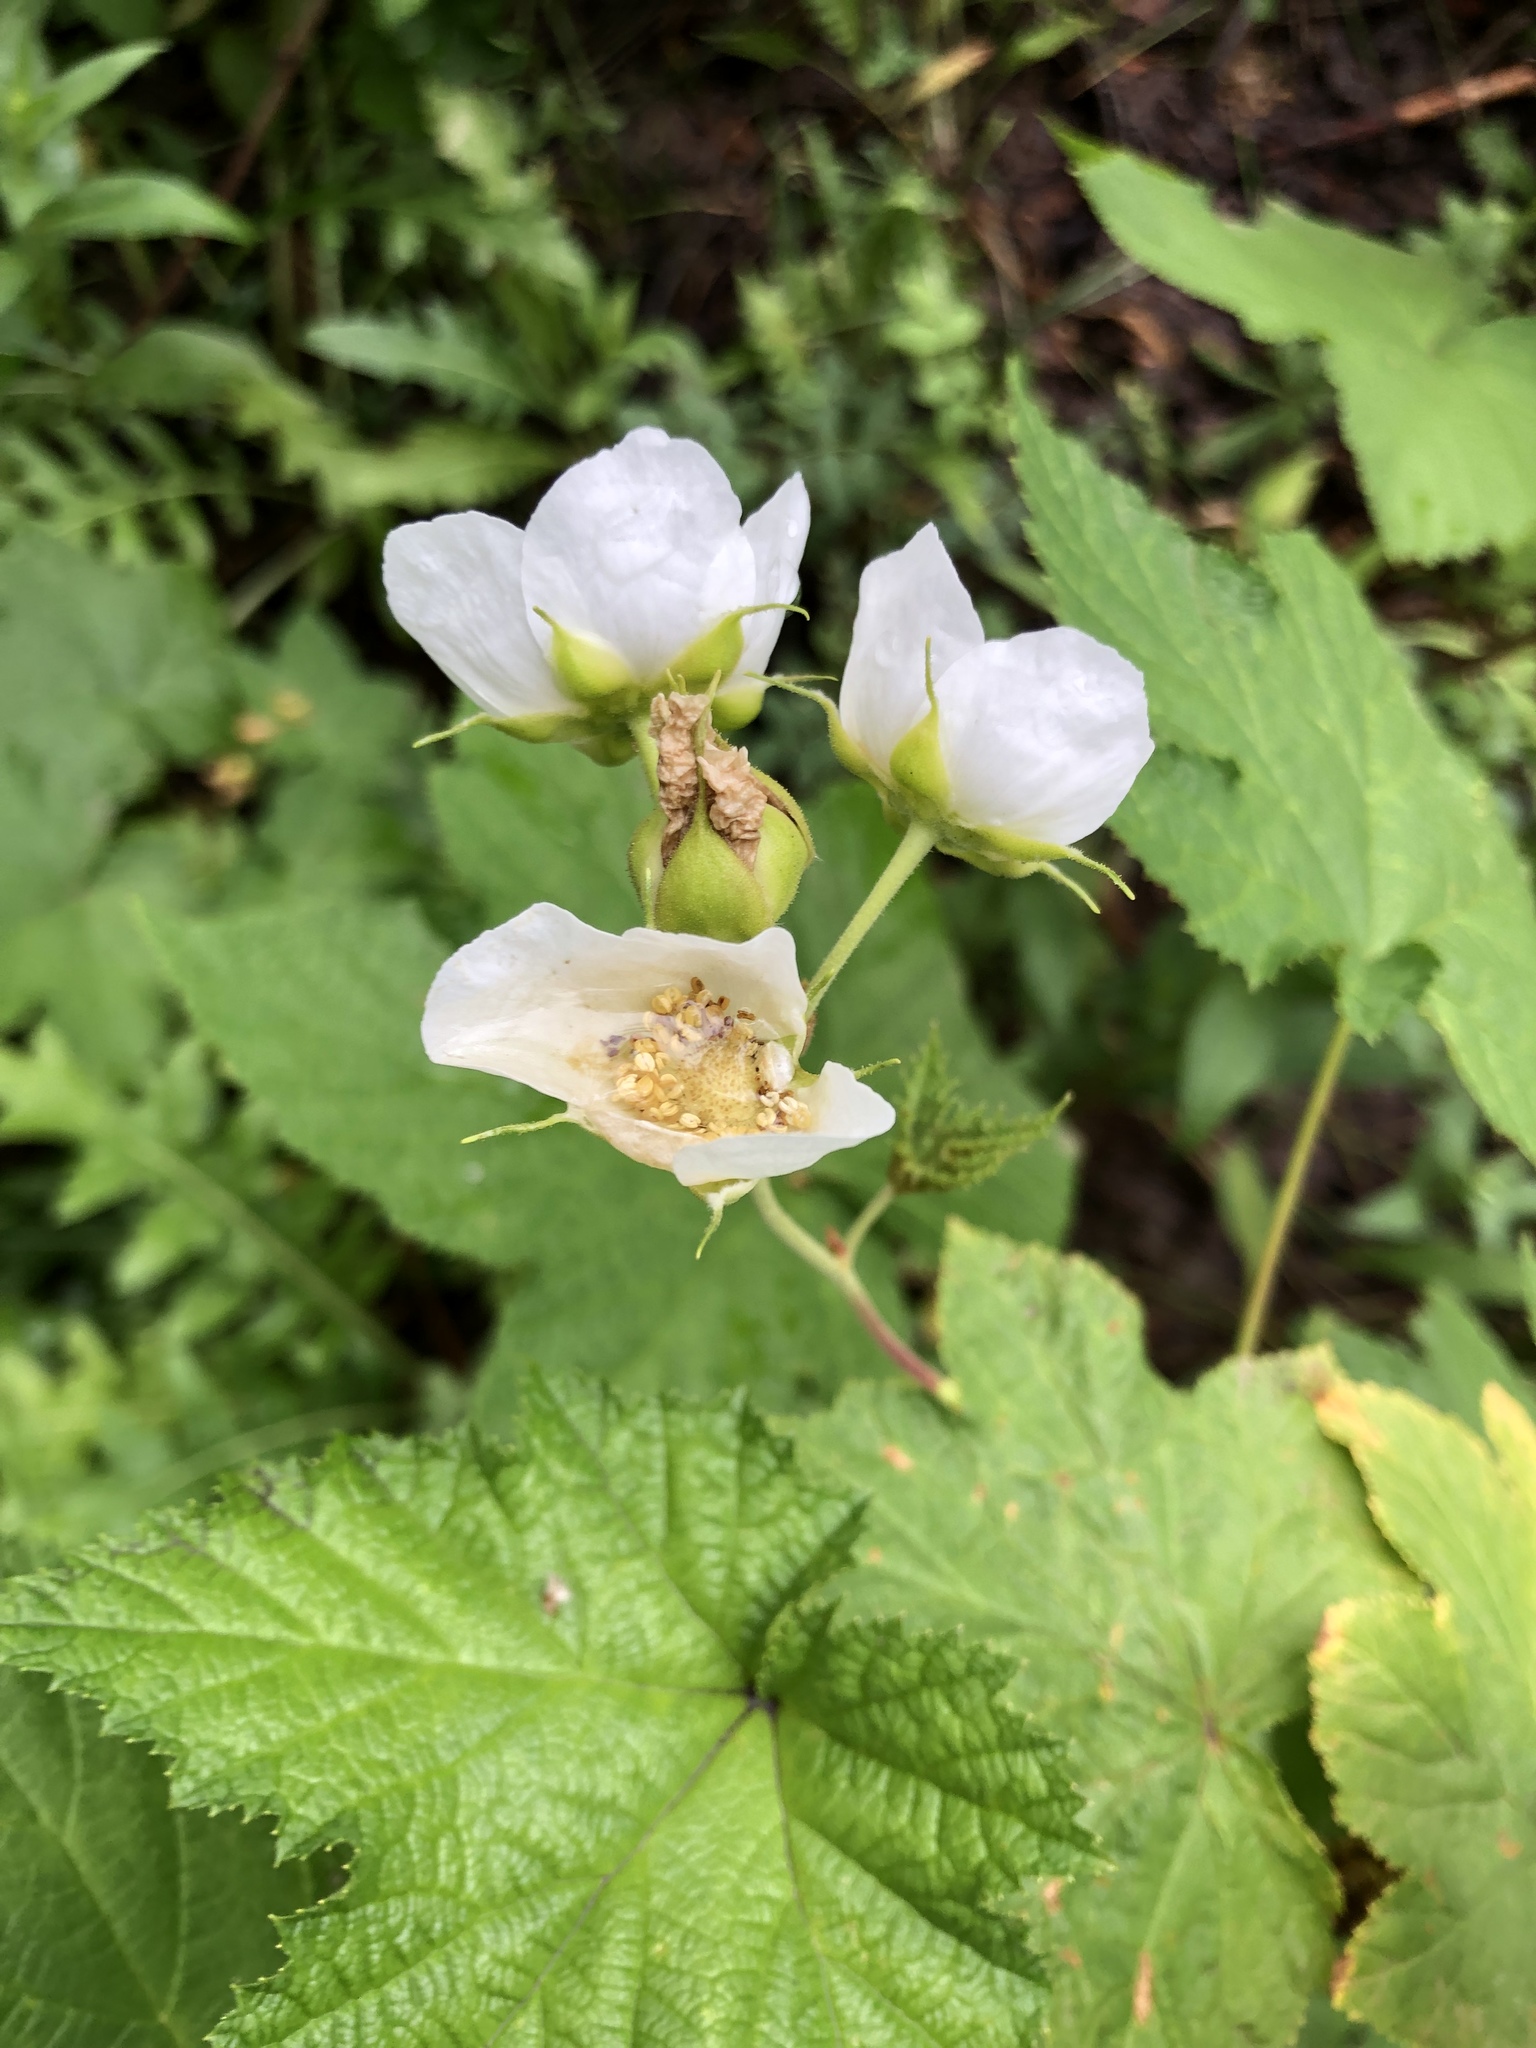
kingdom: Plantae
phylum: Tracheophyta
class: Magnoliopsida
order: Rosales
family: Rosaceae
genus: Rubus
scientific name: Rubus parviflorus
